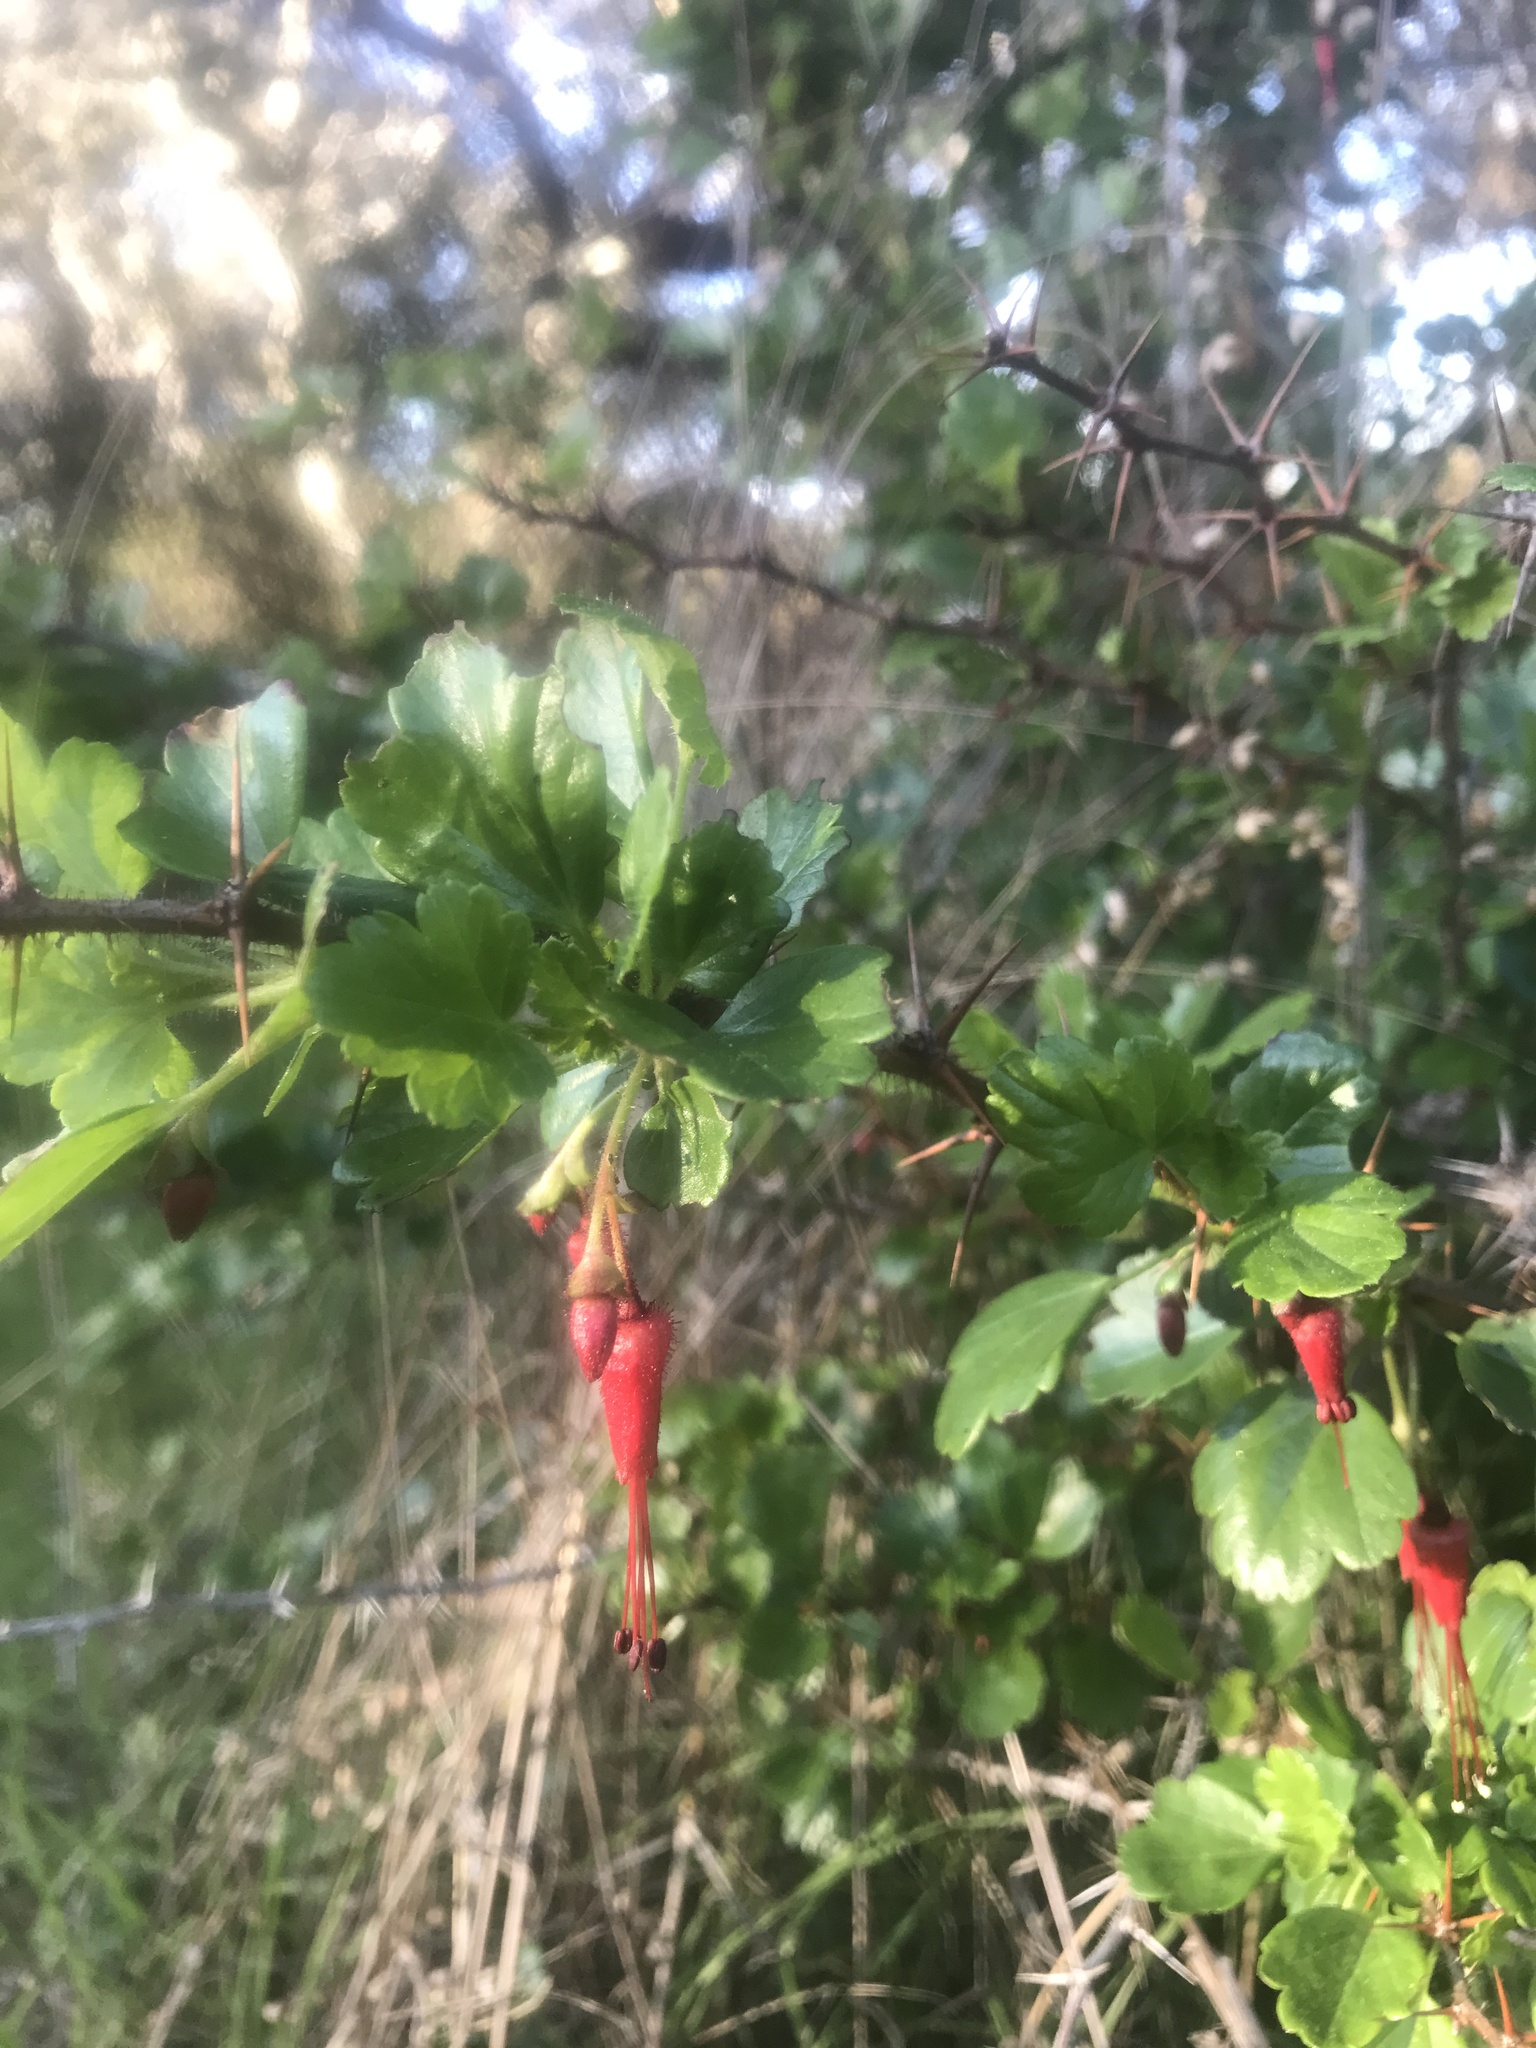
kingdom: Plantae
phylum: Tracheophyta
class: Magnoliopsida
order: Saxifragales
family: Grossulariaceae
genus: Ribes
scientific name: Ribes speciosum
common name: Fuchsia-flower gooseberry
